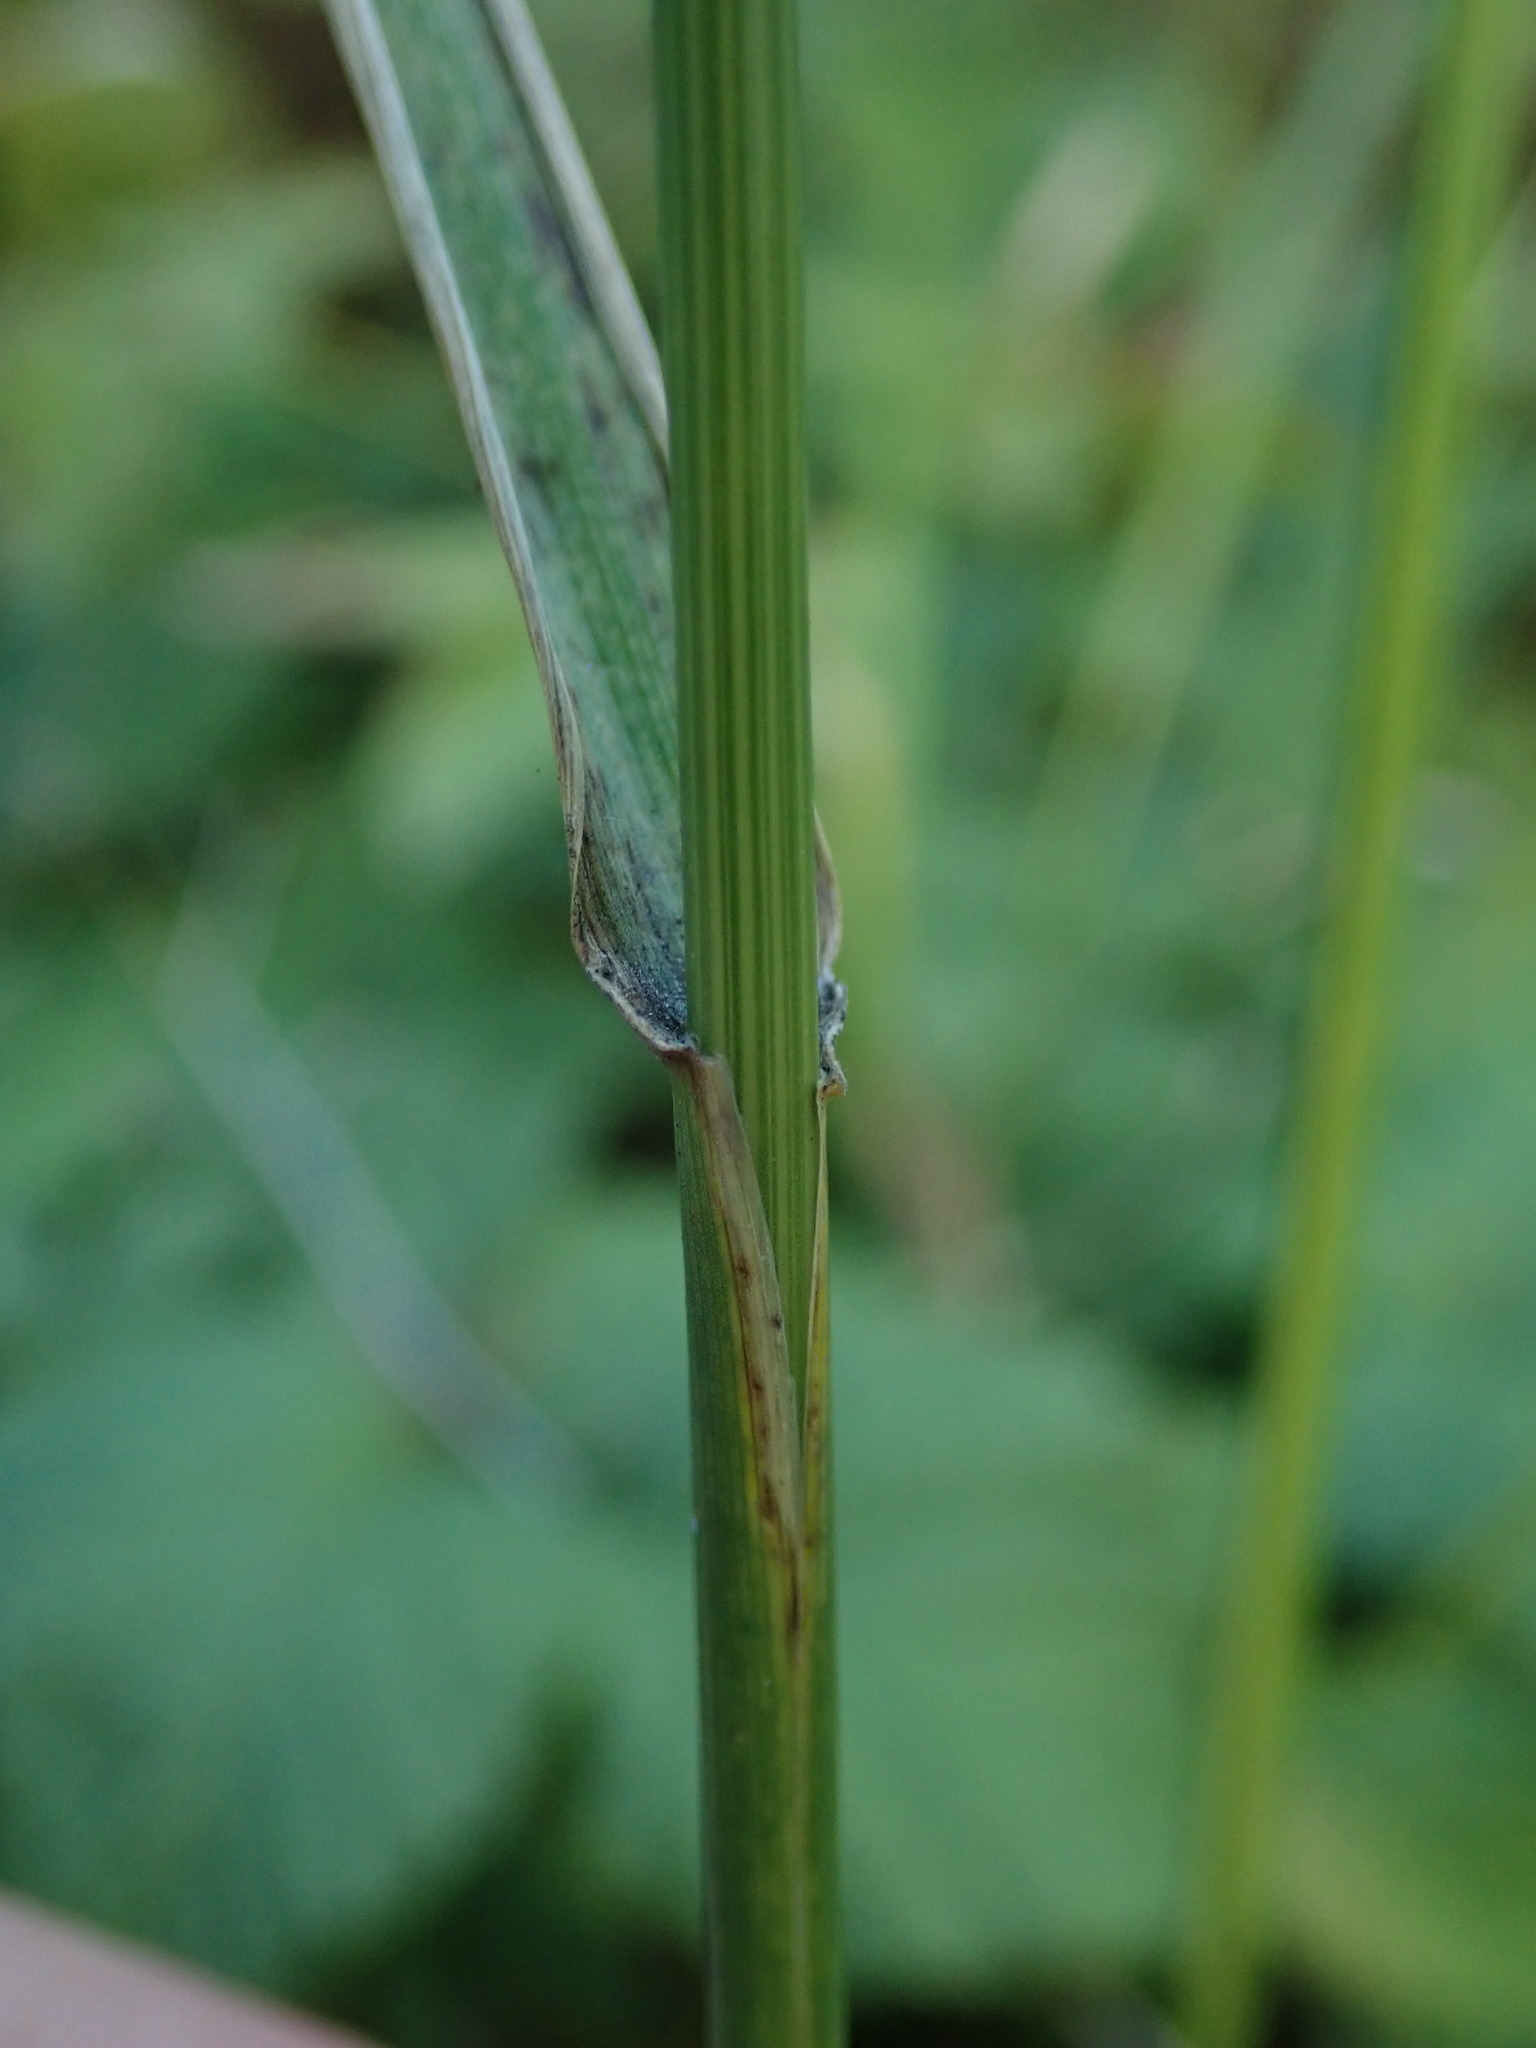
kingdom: Plantae
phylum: Tracheophyta
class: Liliopsida
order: Poales
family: Poaceae
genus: Elymus
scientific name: Elymus repens
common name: Quackgrass
